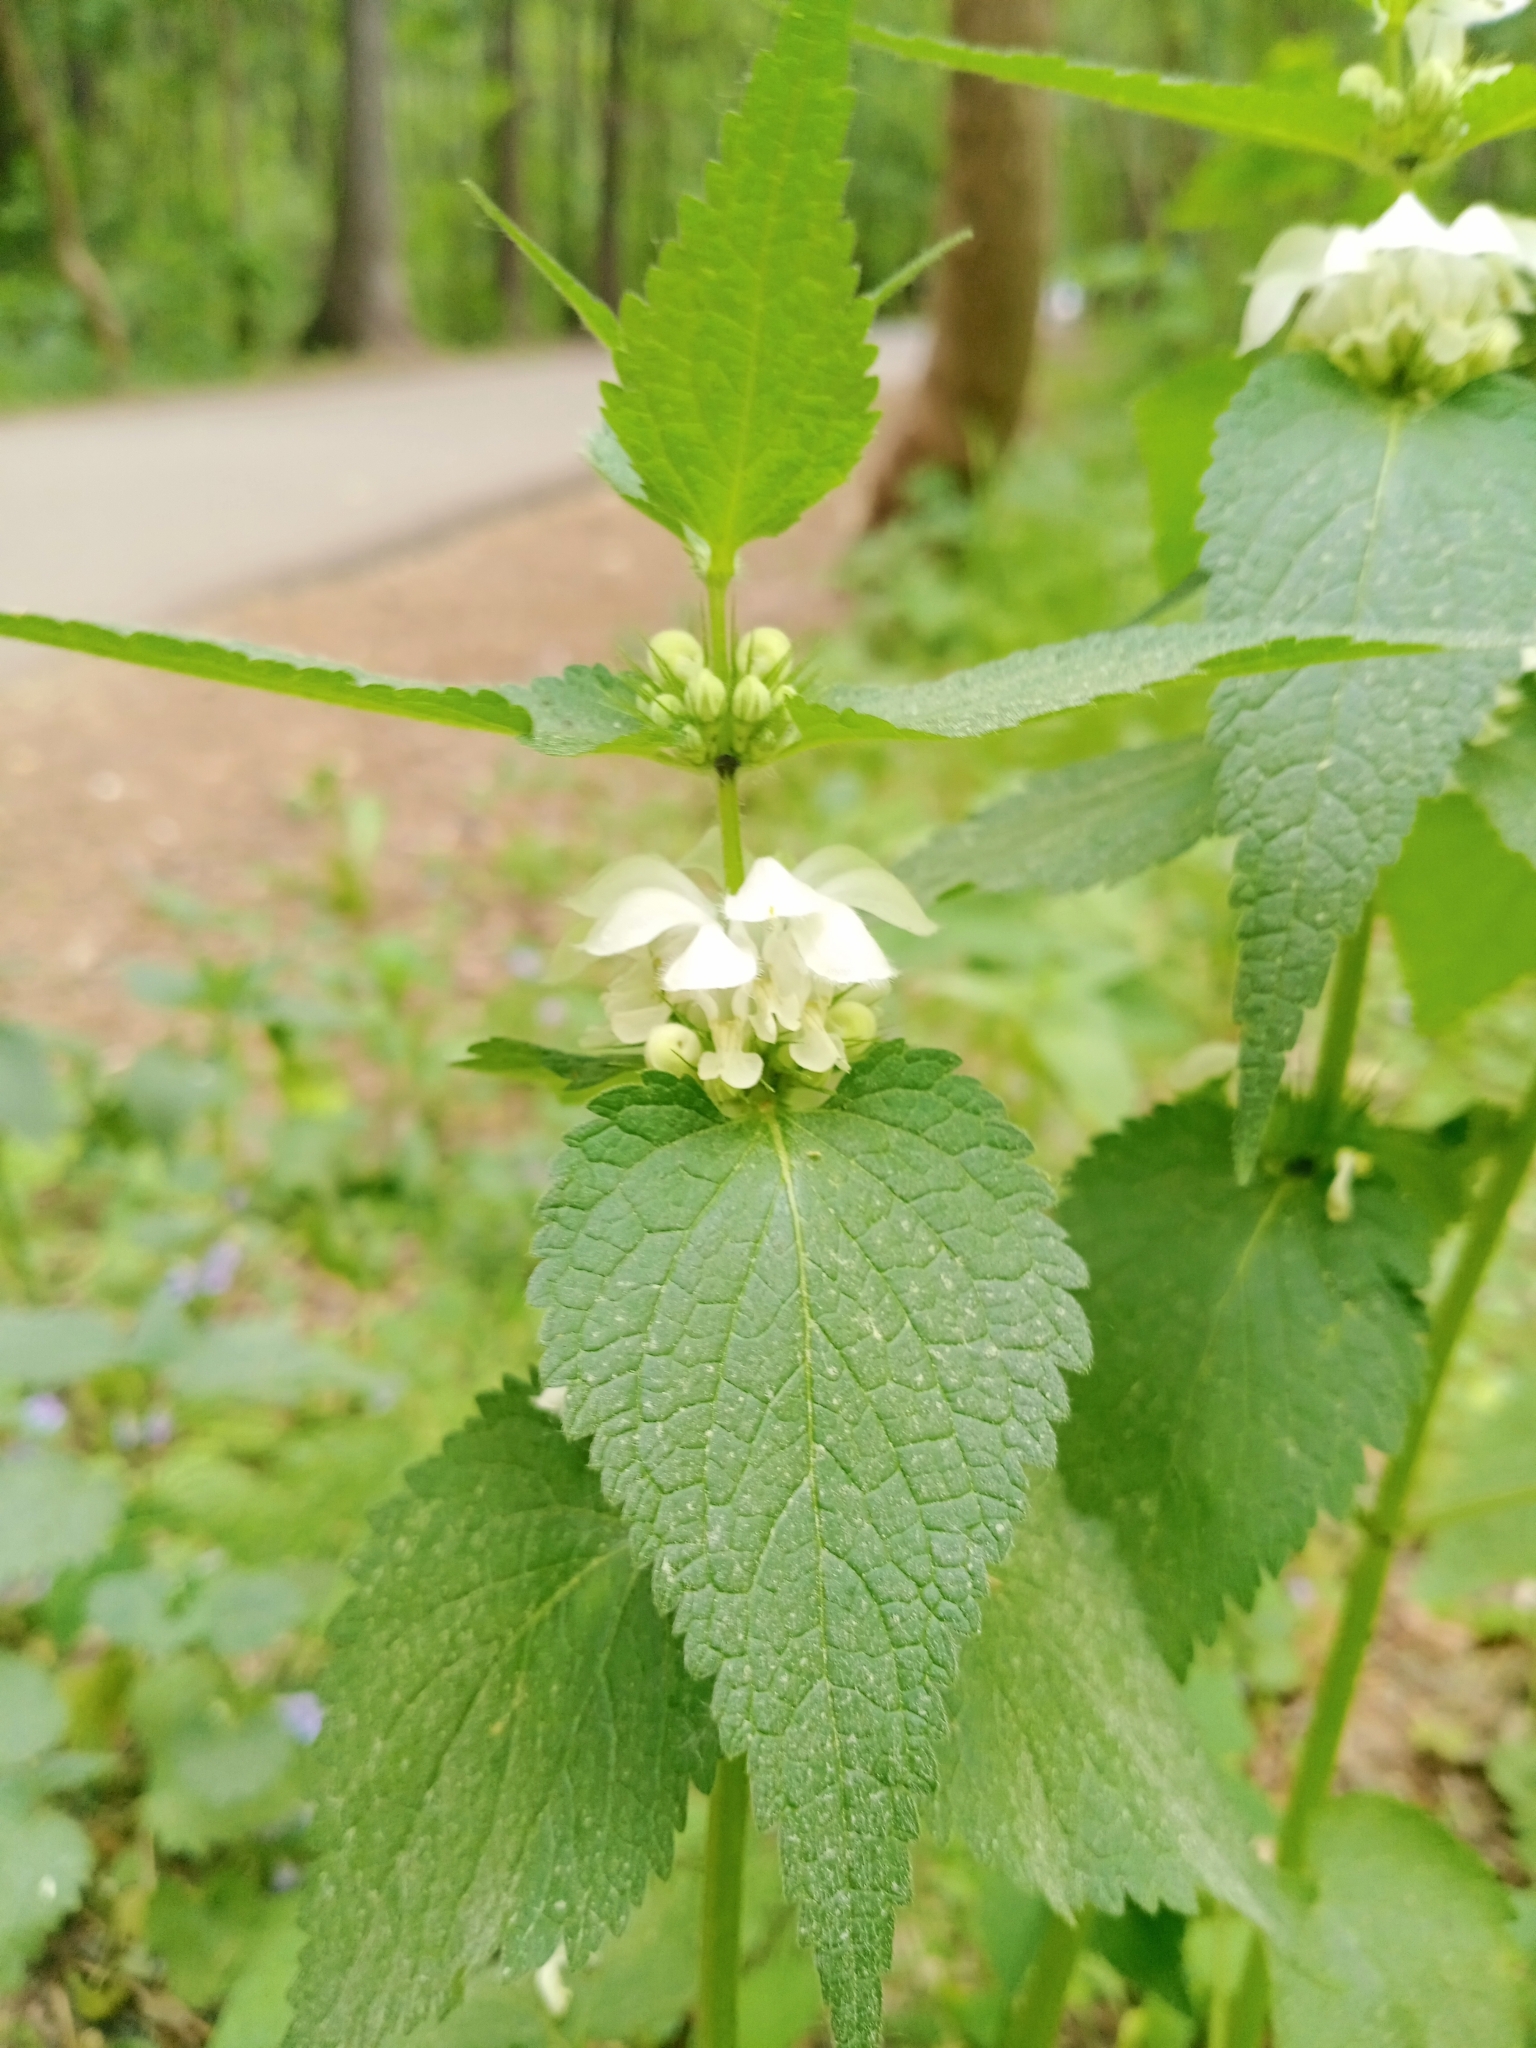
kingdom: Plantae
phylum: Tracheophyta
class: Magnoliopsida
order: Lamiales
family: Lamiaceae
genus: Lamium
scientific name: Lamium album
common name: White dead-nettle
